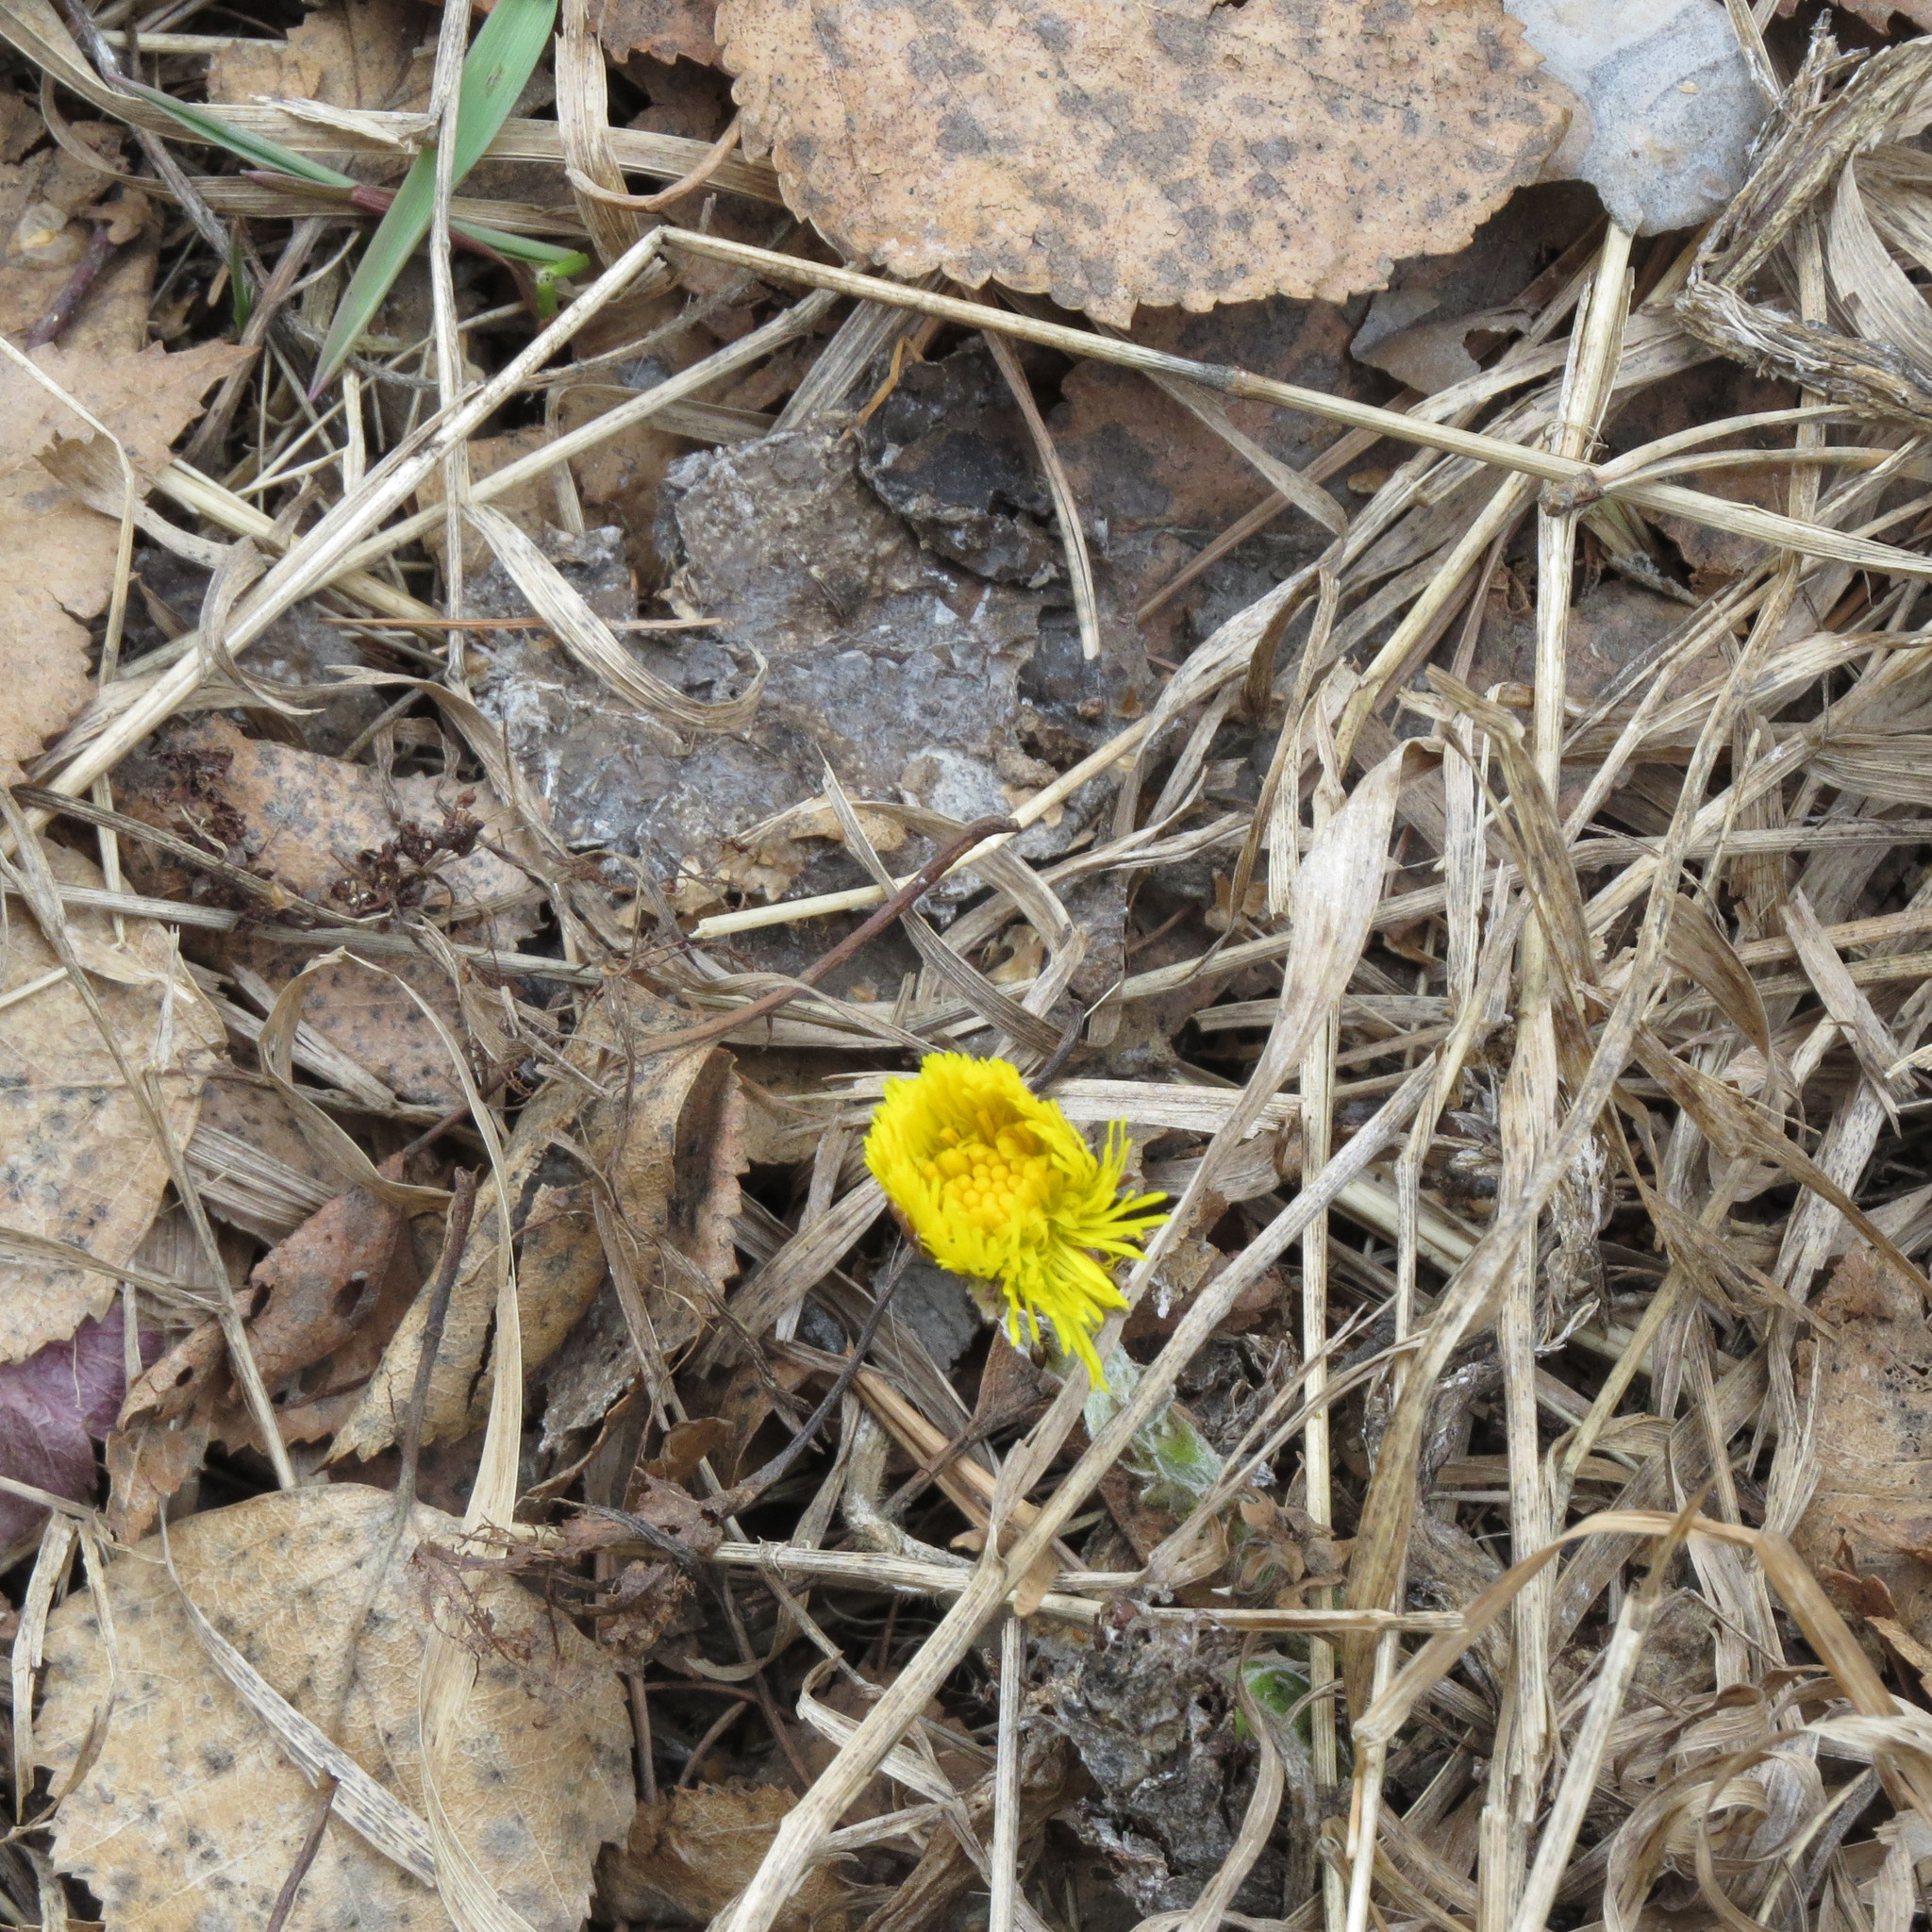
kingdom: Plantae
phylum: Tracheophyta
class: Magnoliopsida
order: Asterales
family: Asteraceae
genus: Tussilago
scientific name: Tussilago farfara
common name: Coltsfoot
